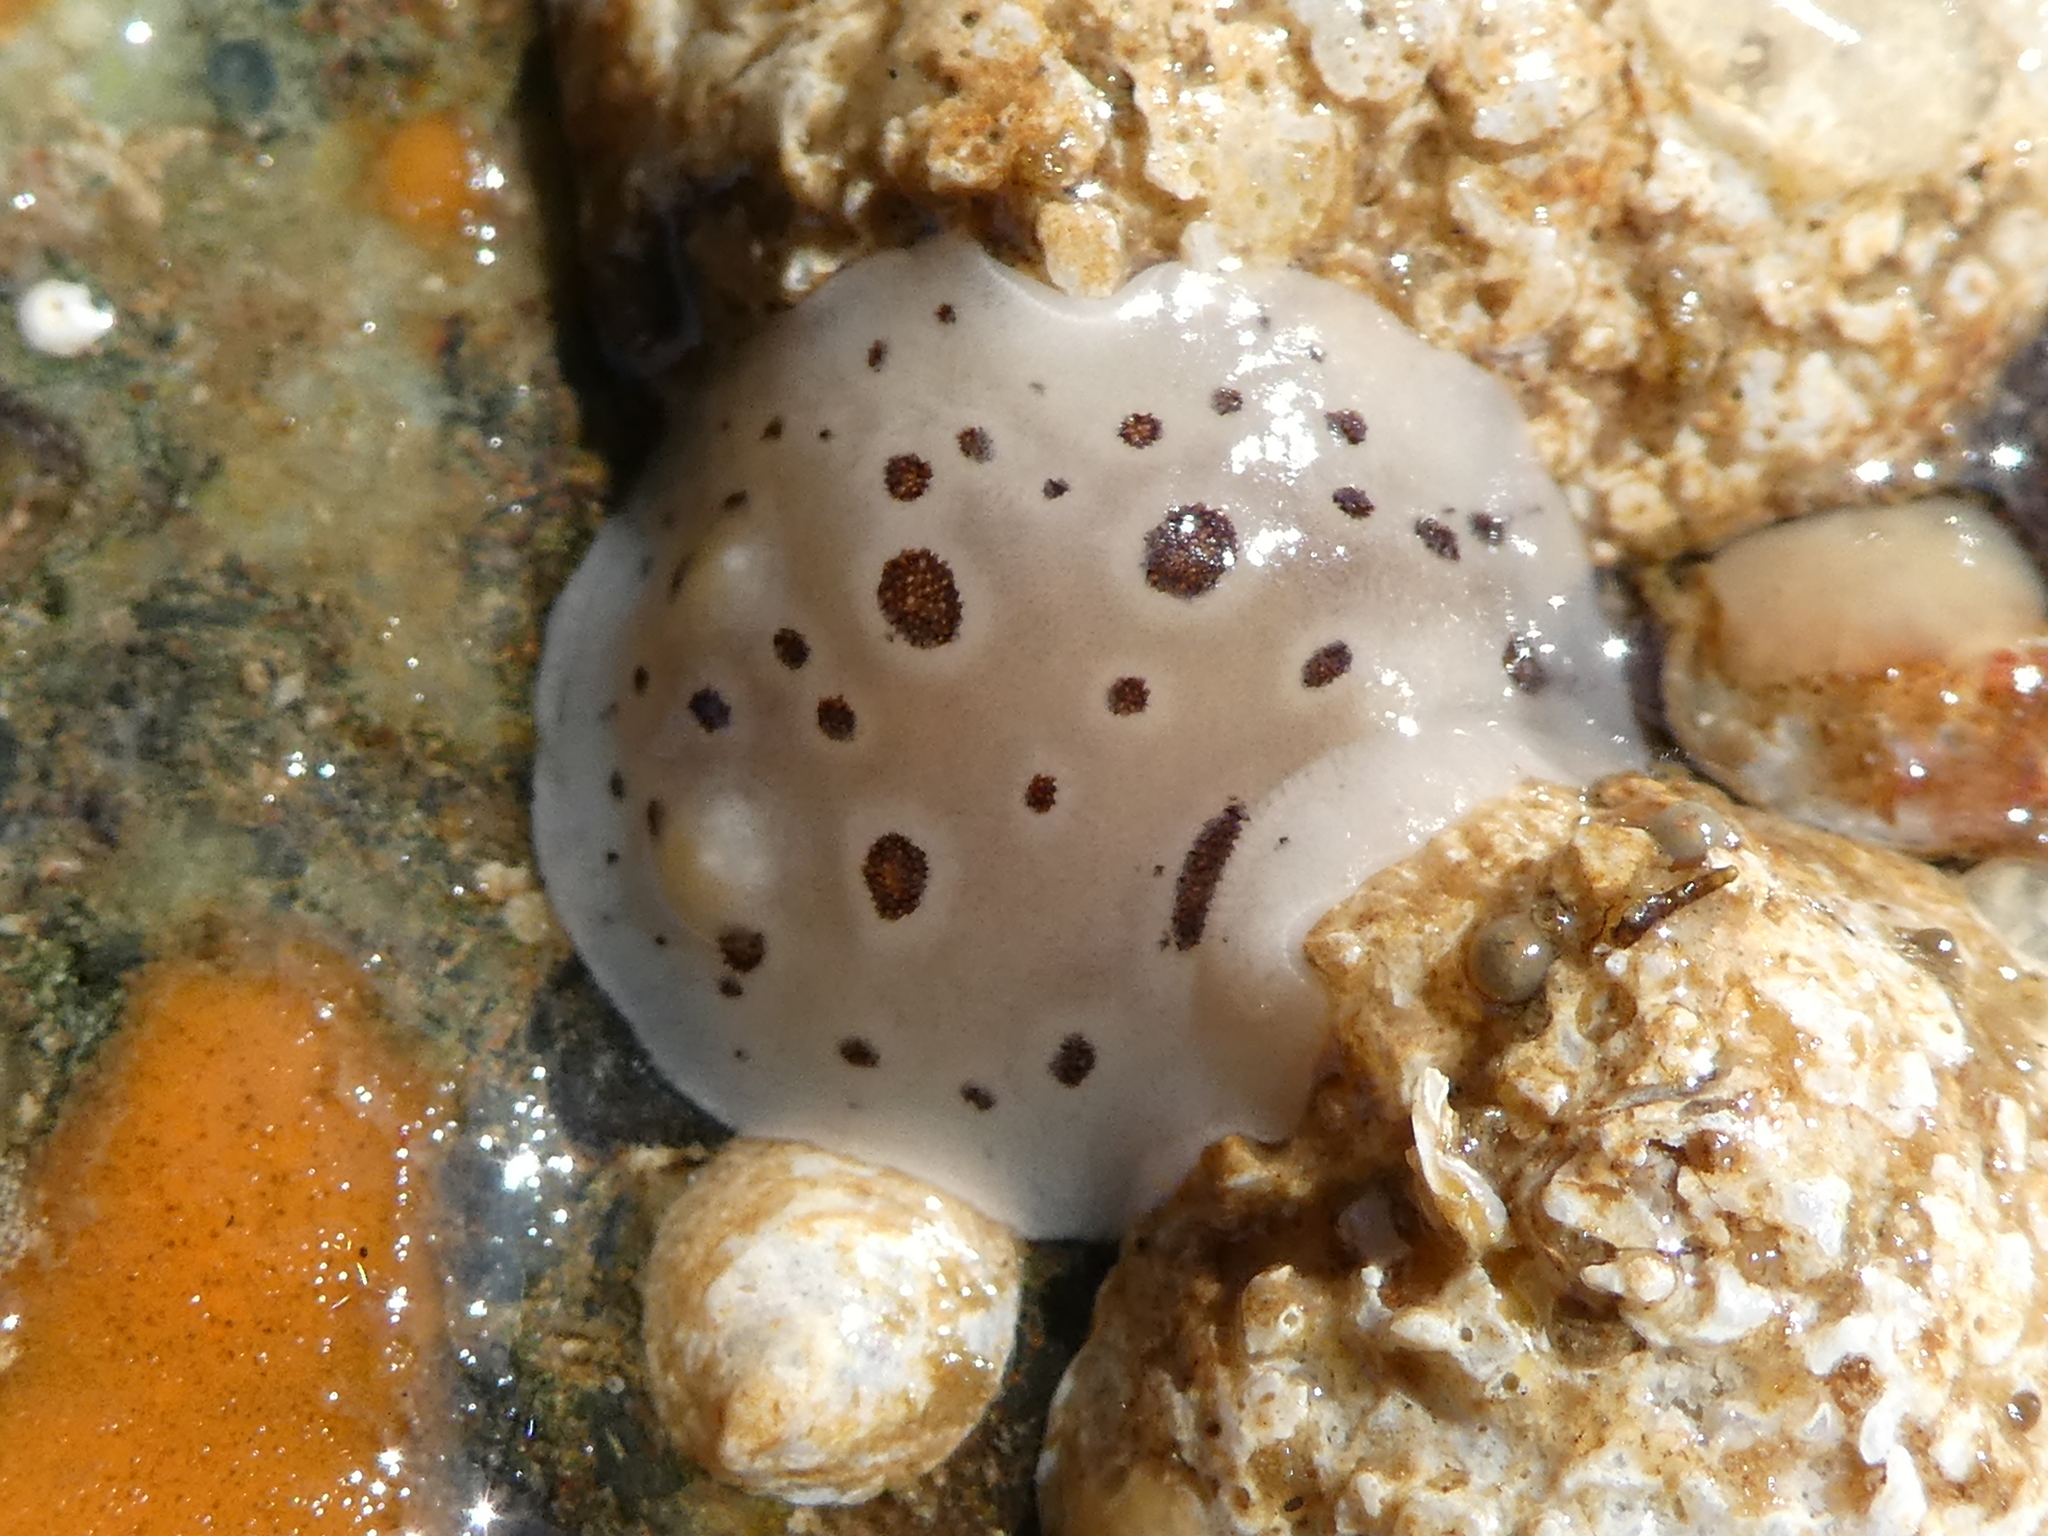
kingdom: Animalia
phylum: Mollusca
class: Gastropoda
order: Nudibranchia
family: Discodorididae
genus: Diaulula
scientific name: Diaulula odonoghuei
